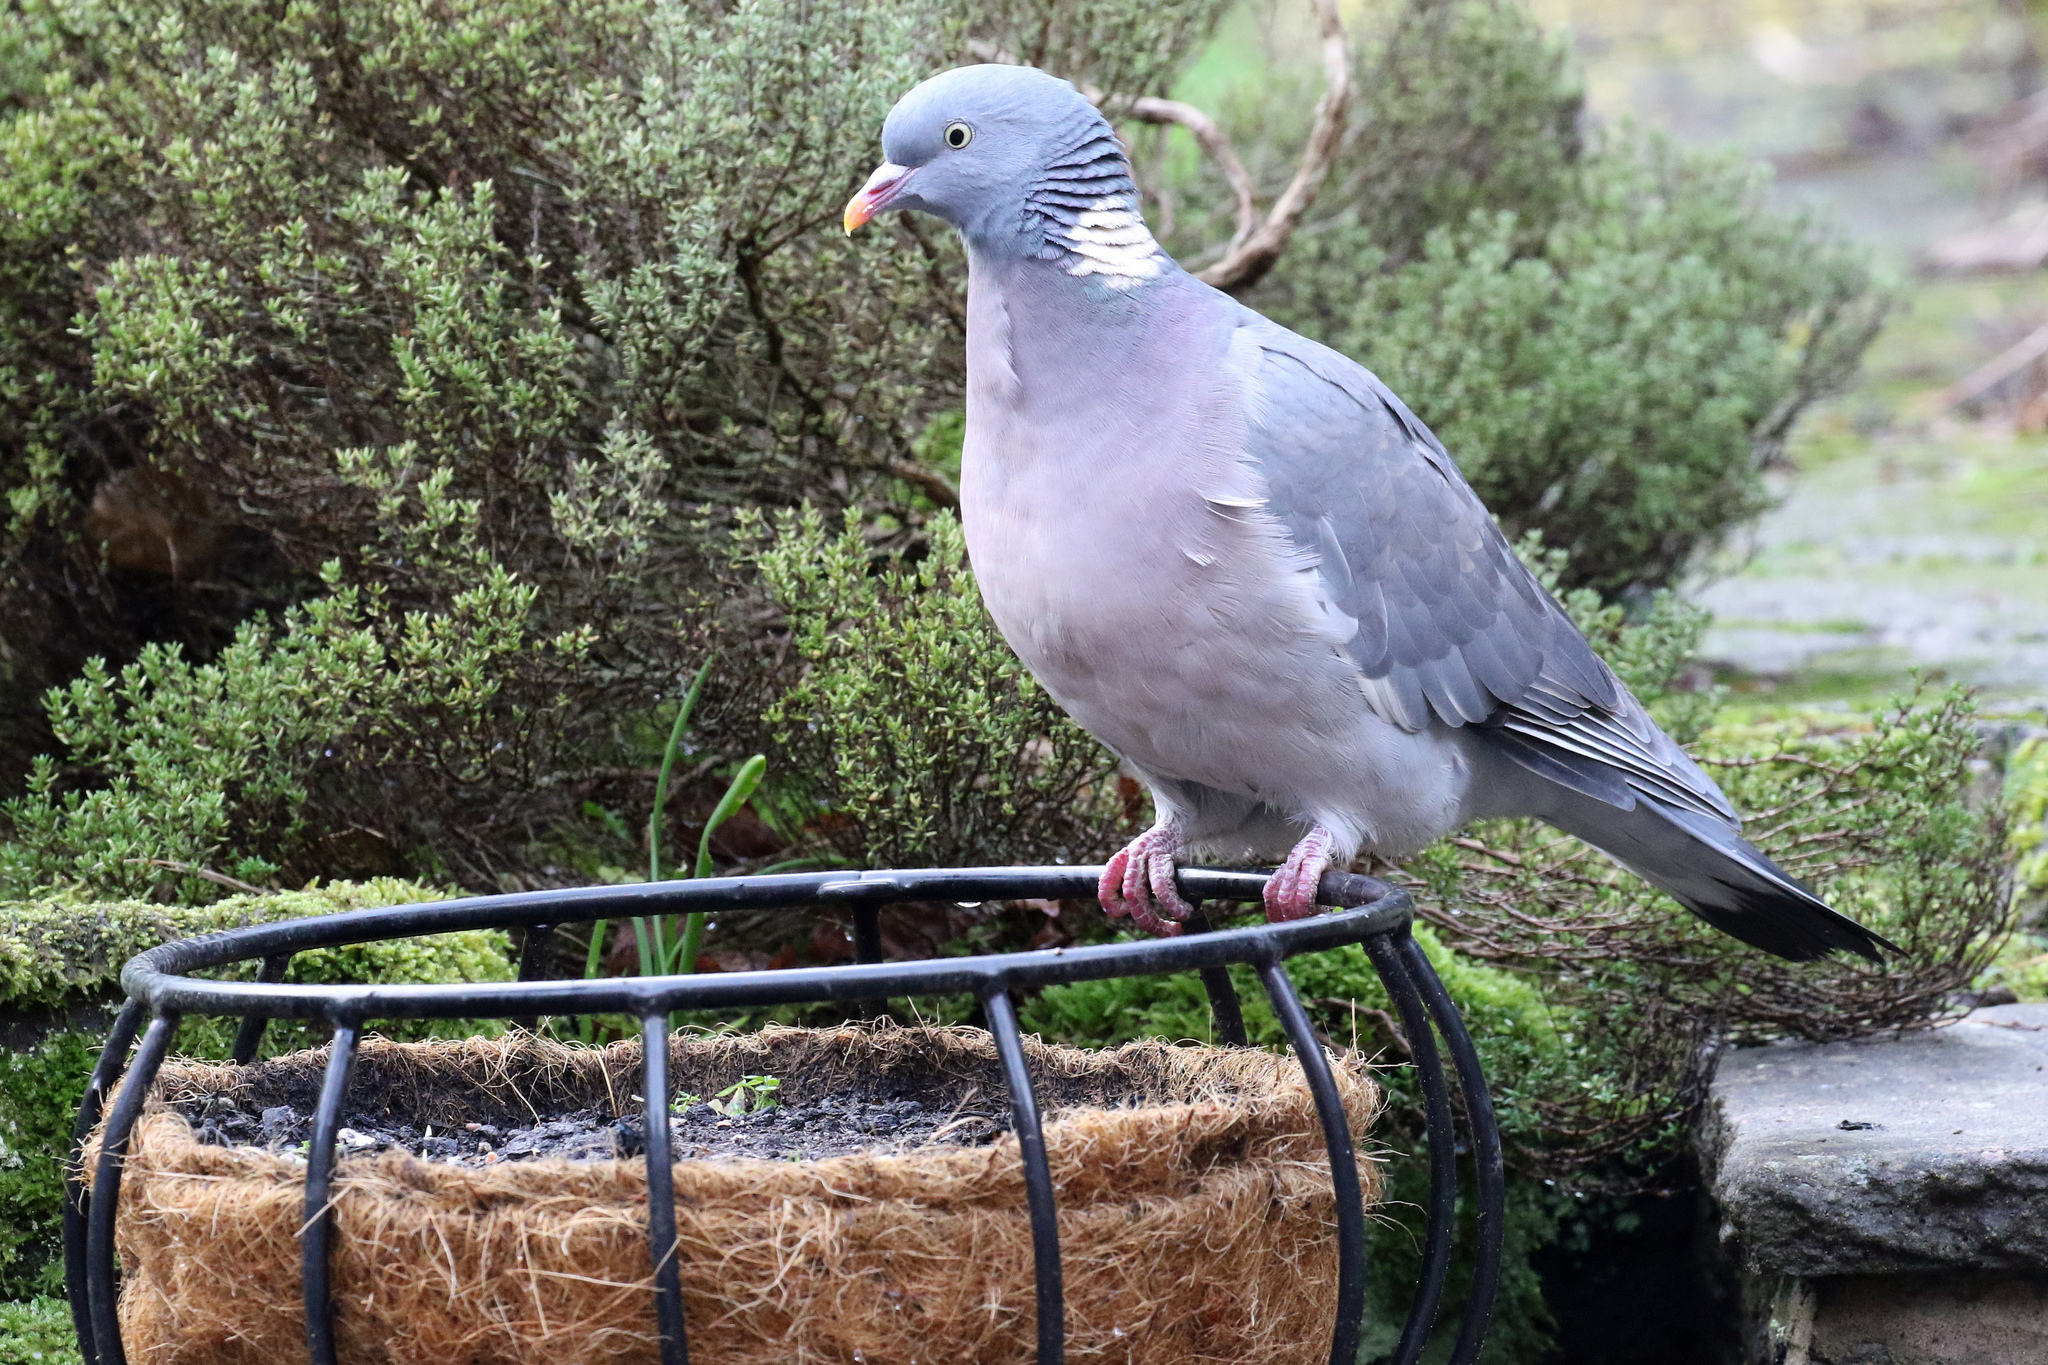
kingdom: Animalia
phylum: Chordata
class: Aves
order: Columbiformes
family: Columbidae
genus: Columba
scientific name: Columba palumbus
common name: Common wood pigeon
